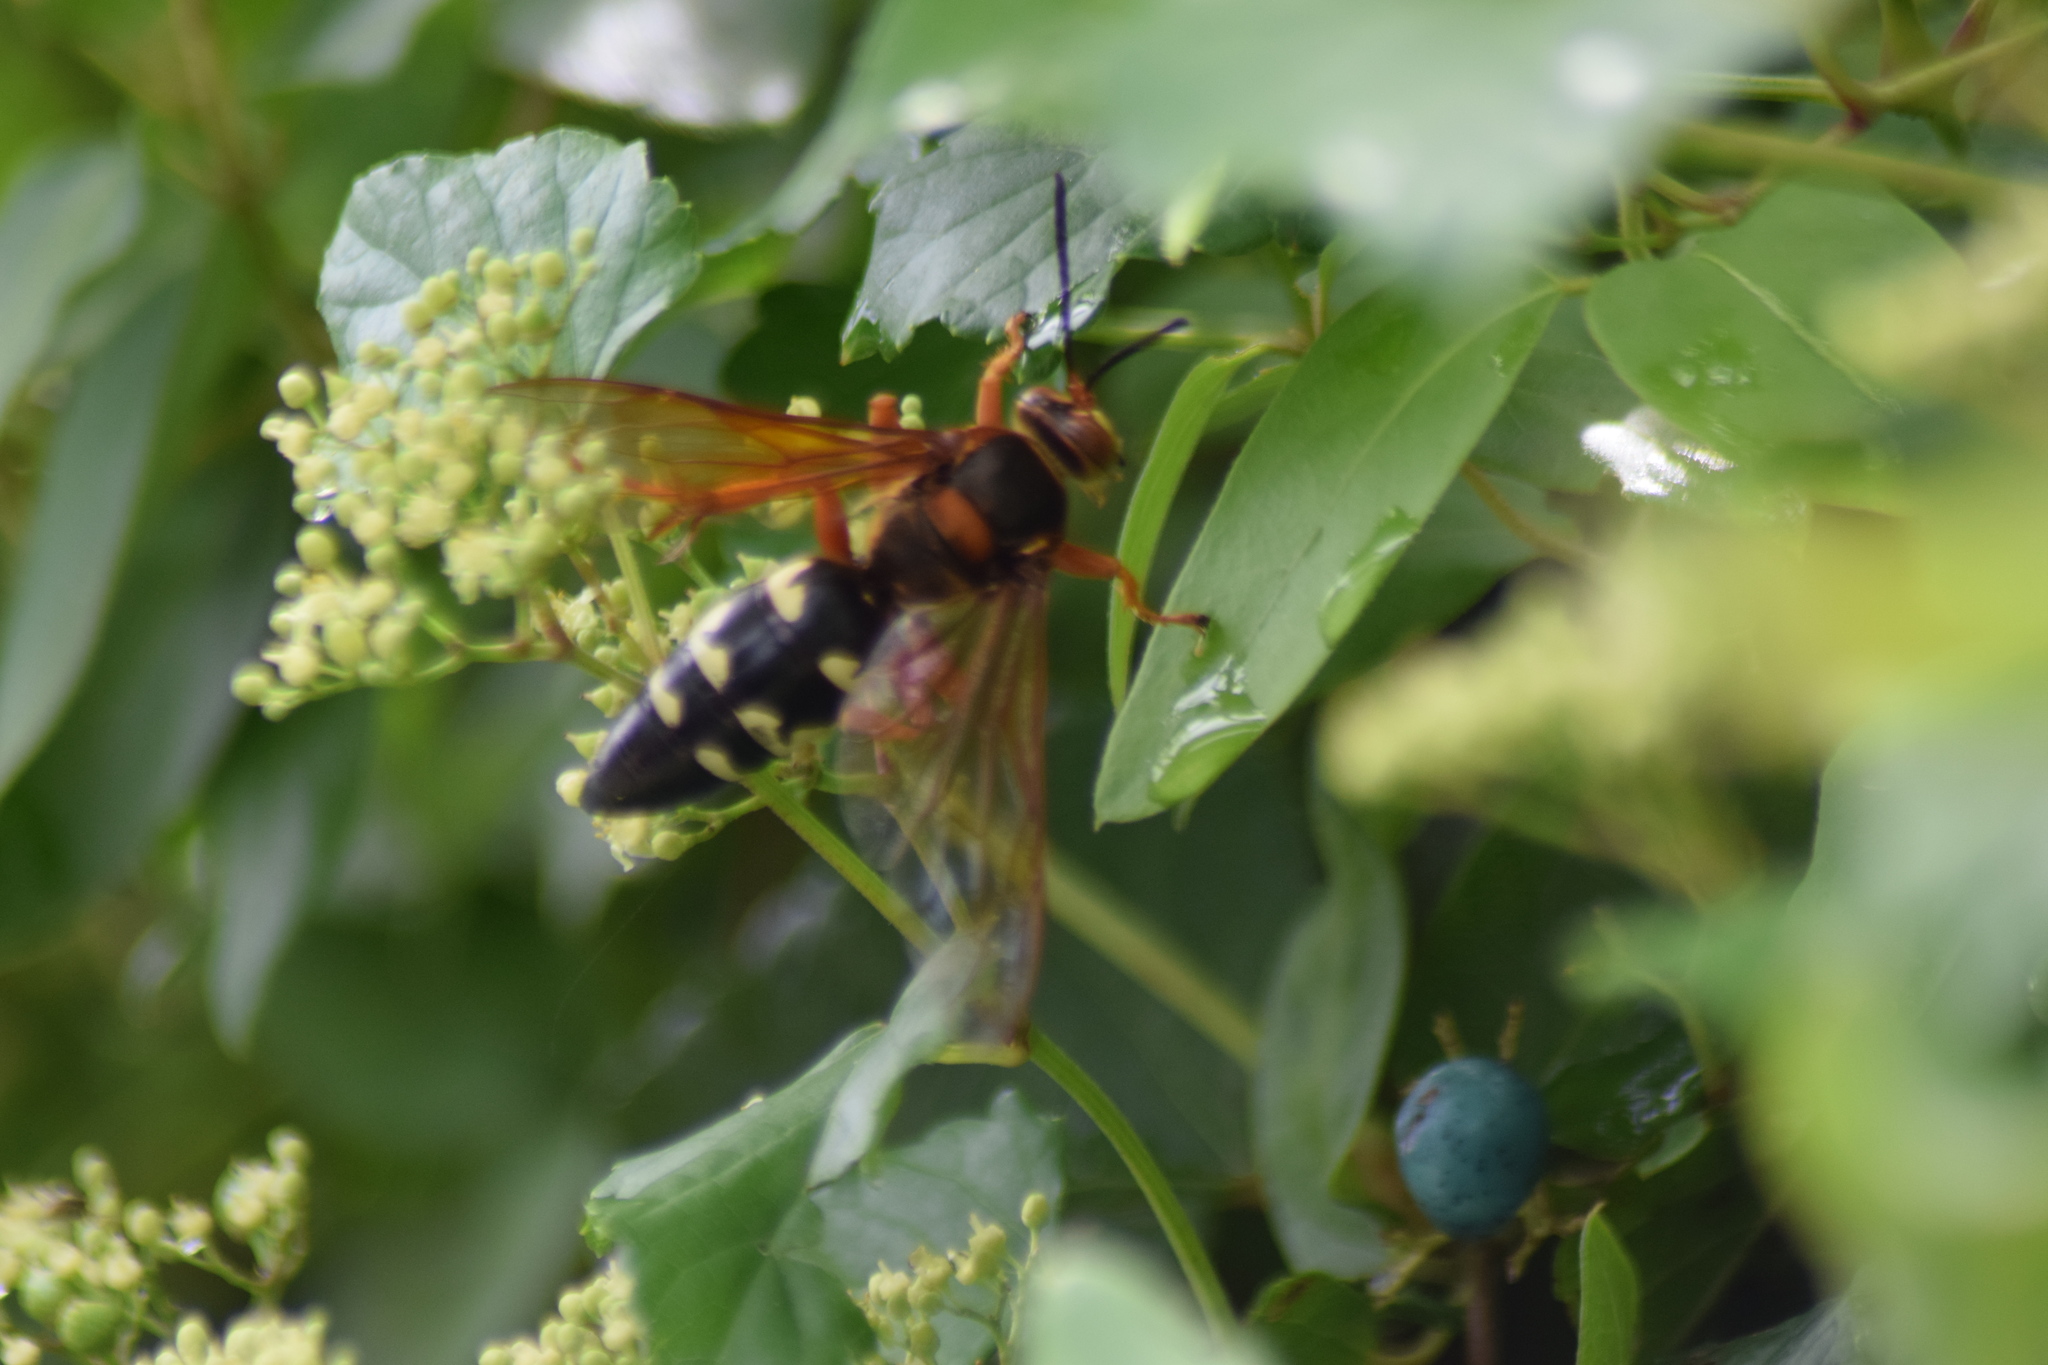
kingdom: Animalia
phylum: Arthropoda
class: Insecta
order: Hymenoptera
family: Crabronidae
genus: Sphecius
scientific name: Sphecius speciosus
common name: Cicada killer
